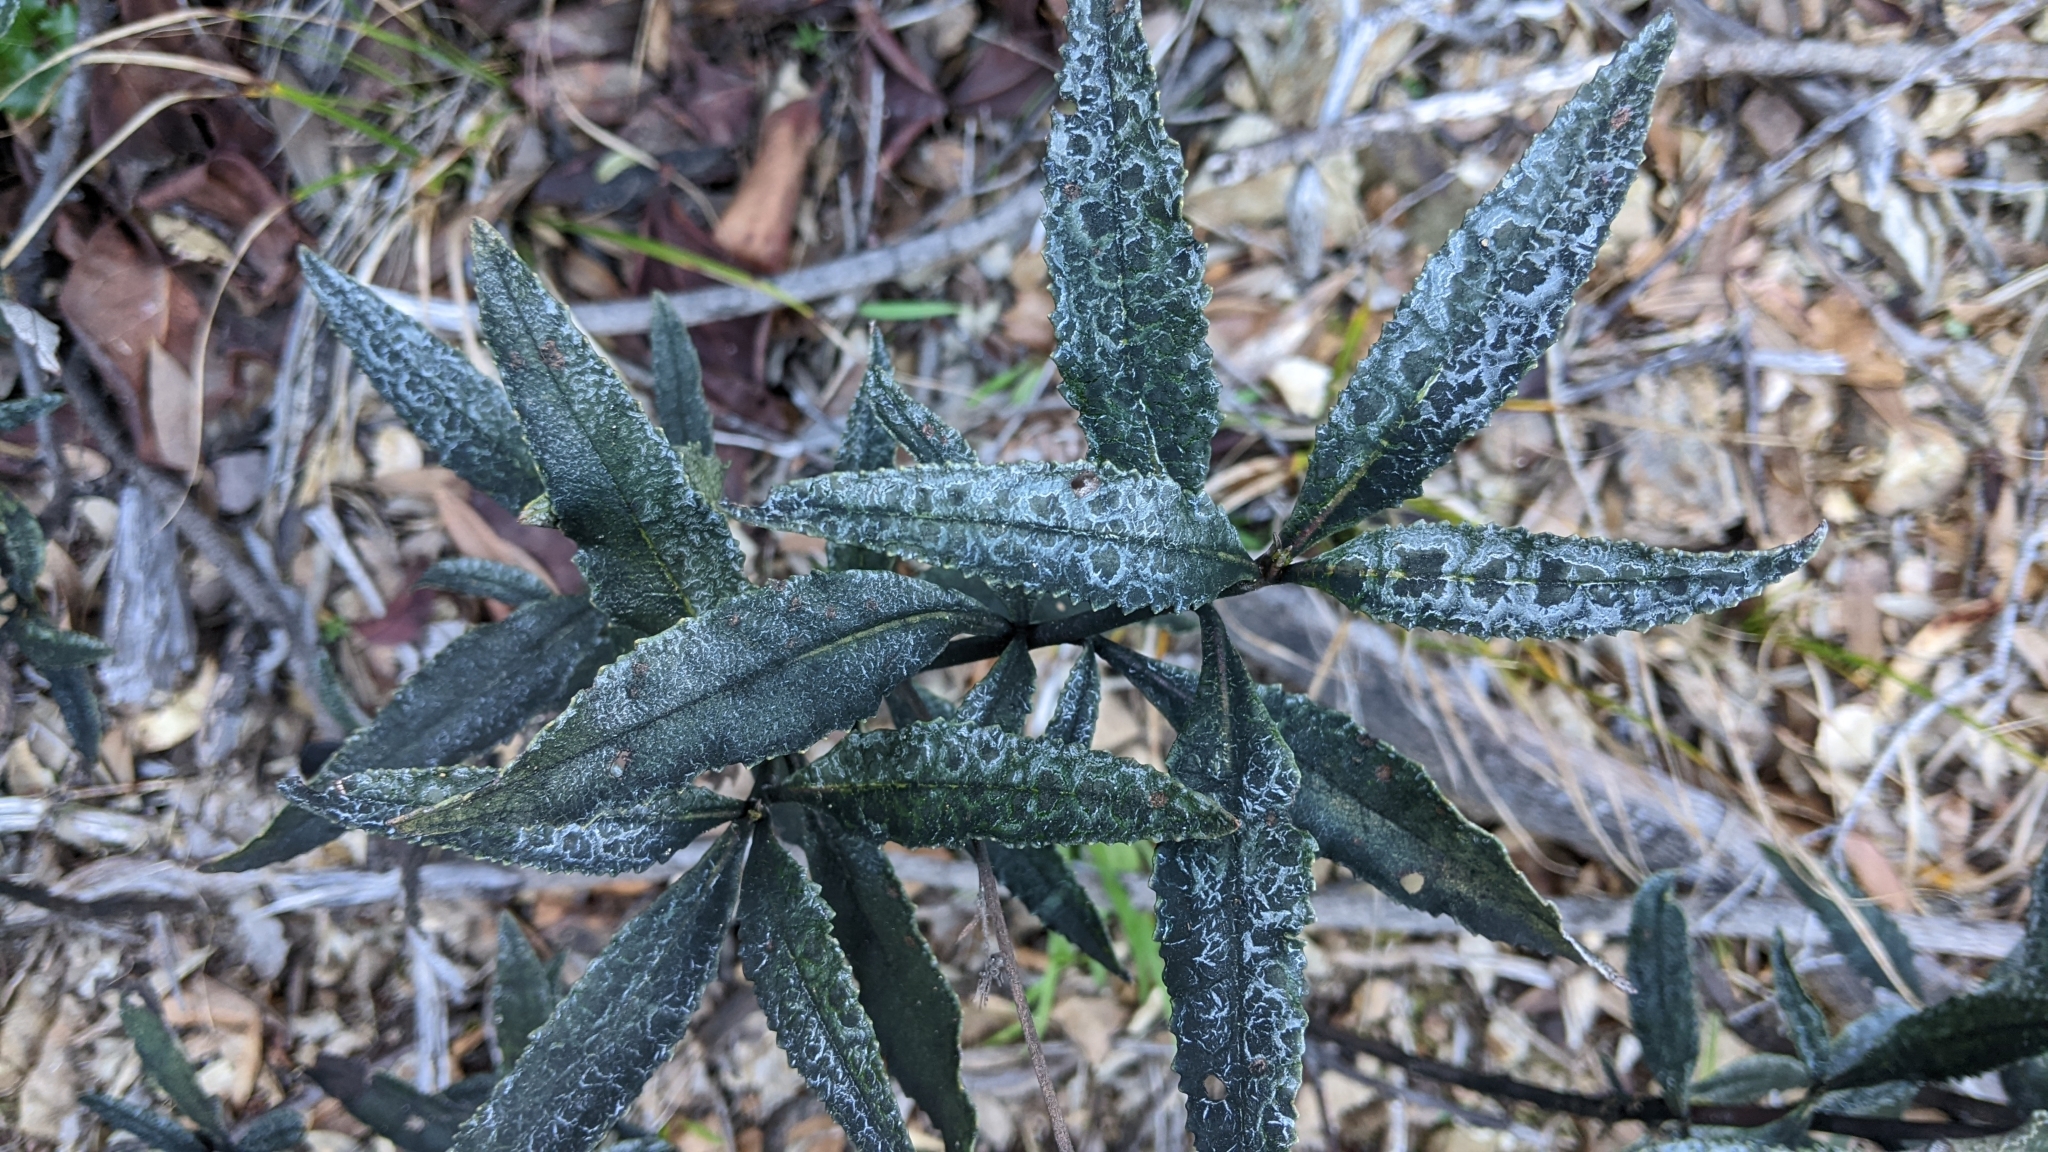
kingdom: Plantae
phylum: Tracheophyta
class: Magnoliopsida
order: Boraginales
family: Namaceae
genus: Eriodictyon
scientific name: Eriodictyon californicum
